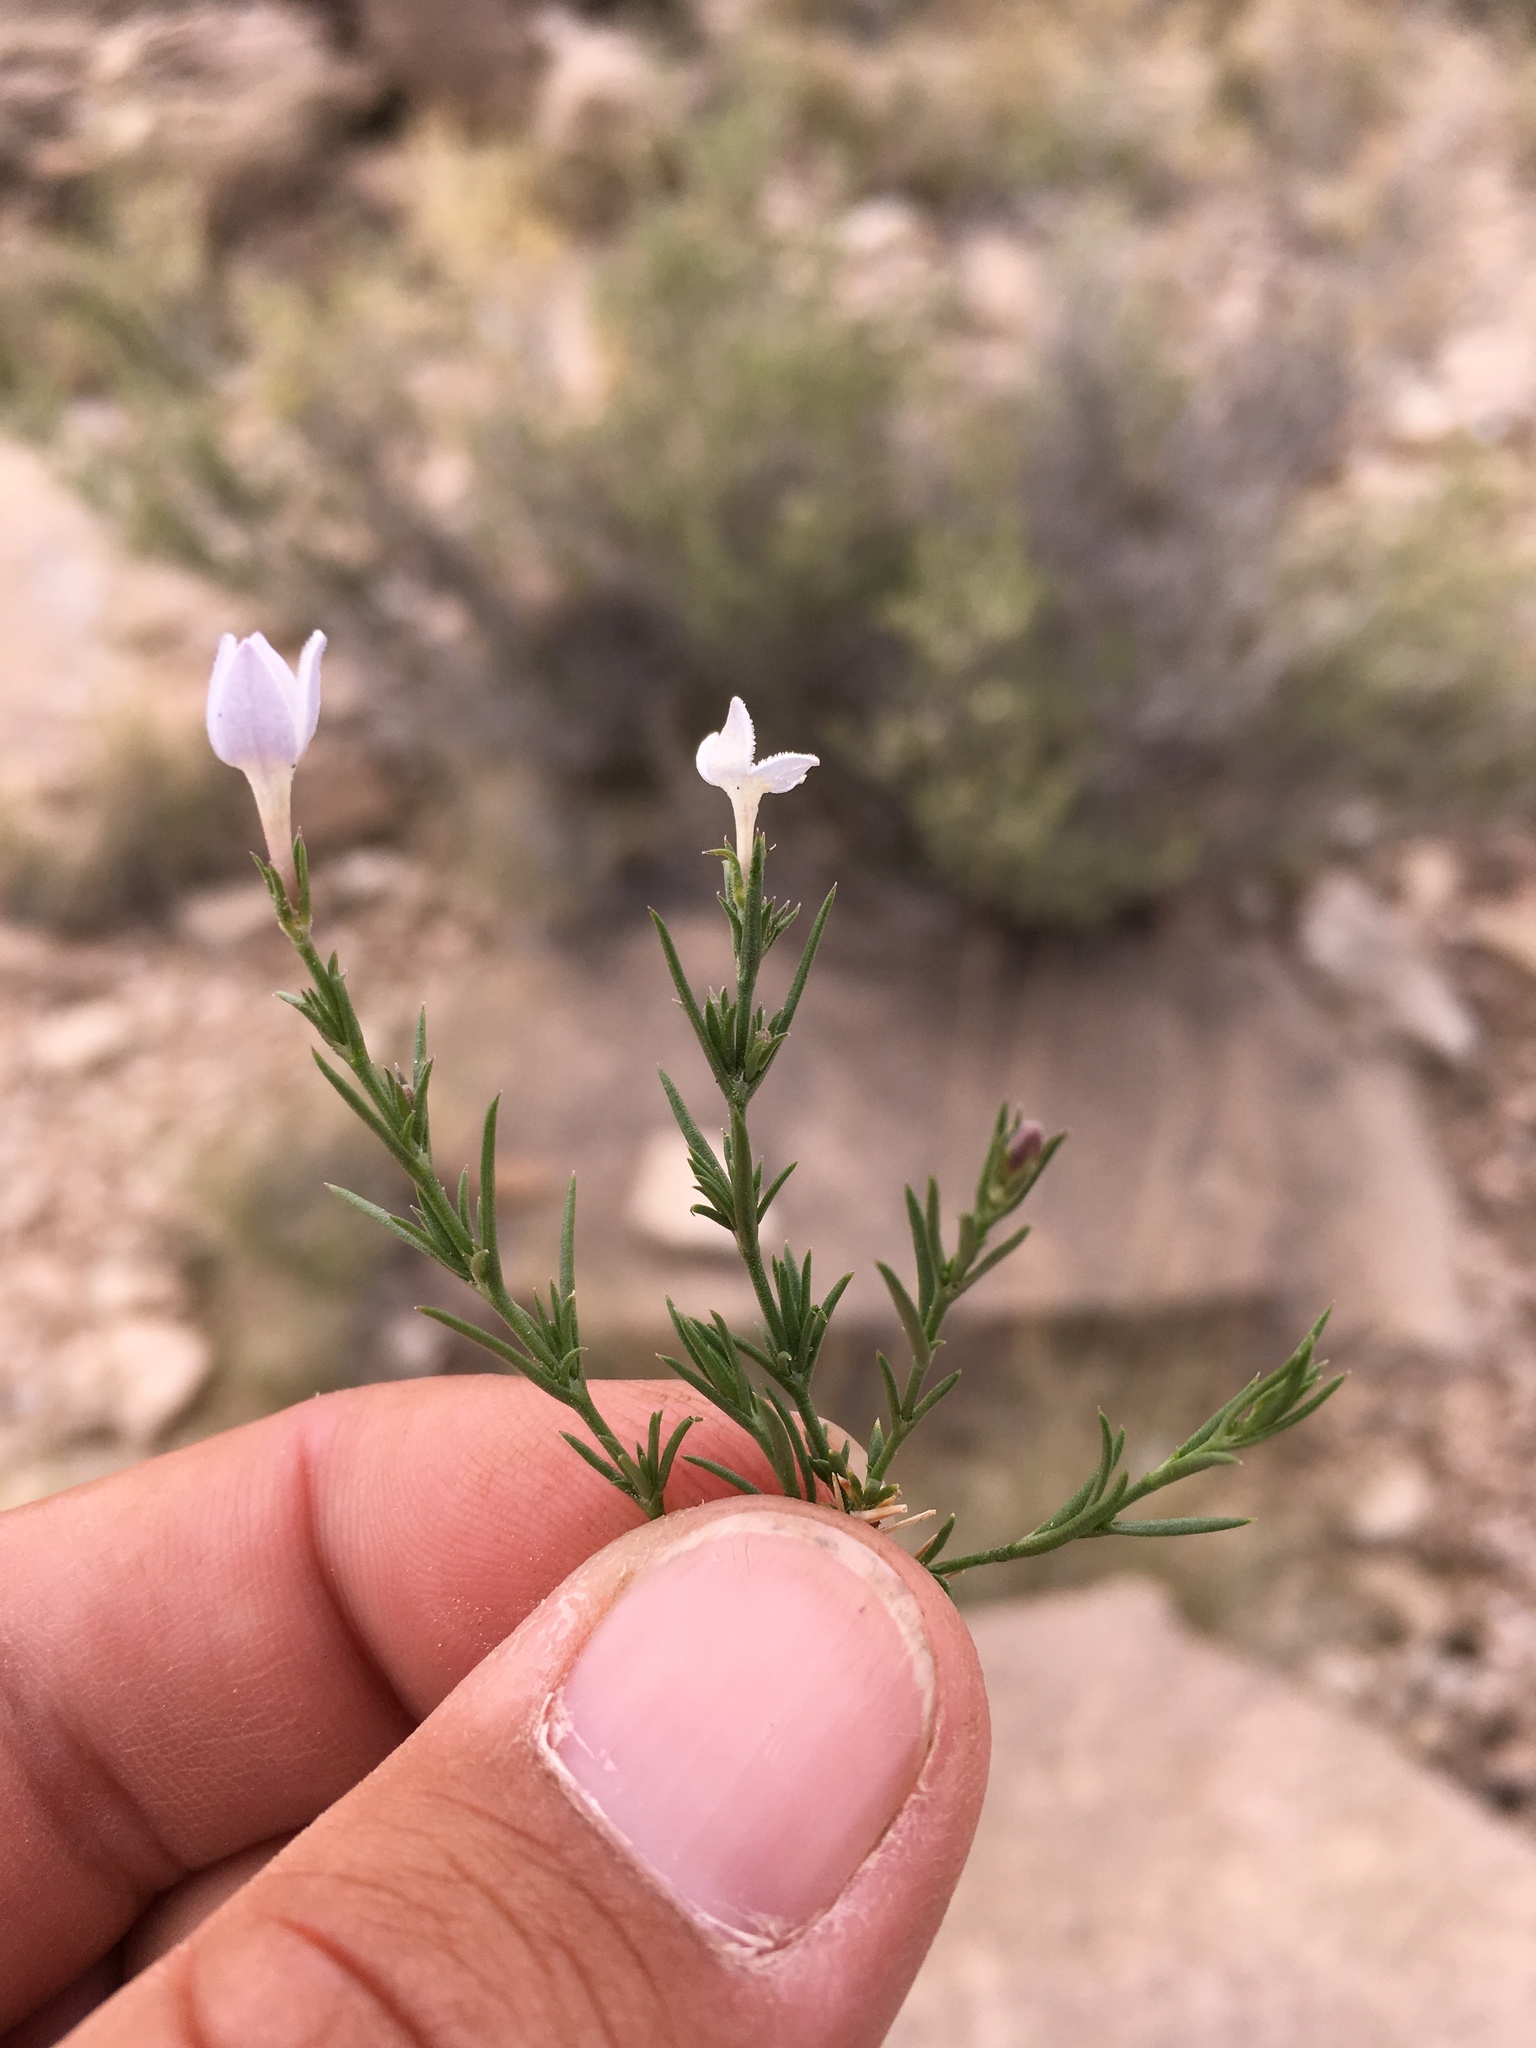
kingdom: Plantae
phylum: Tracheophyta
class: Magnoliopsida
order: Gentianales
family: Rubiaceae
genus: Houstonia
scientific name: Houstonia acerosa
